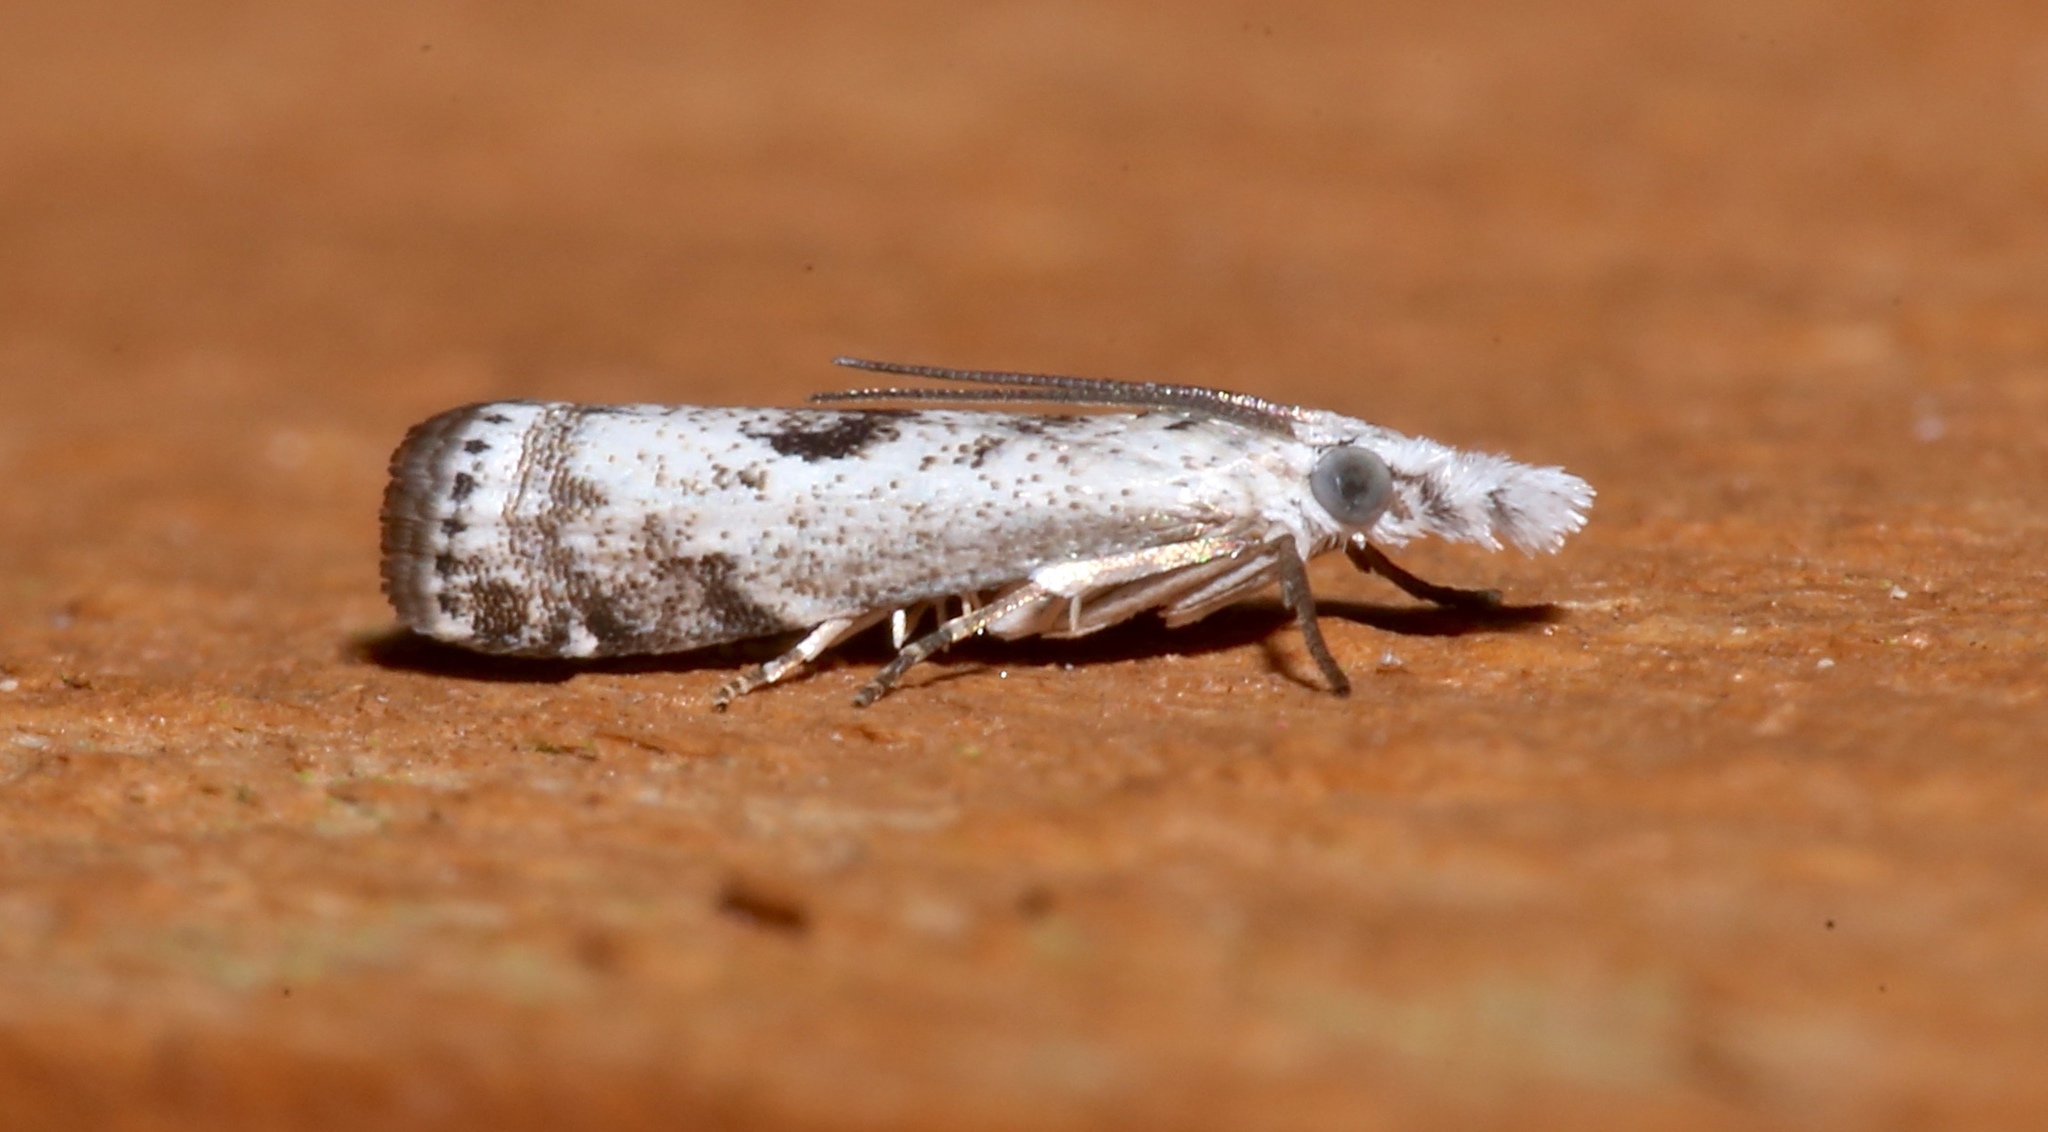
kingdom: Animalia
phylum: Arthropoda
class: Insecta
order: Lepidoptera
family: Crambidae
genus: Microcrambus
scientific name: Microcrambus immunellus
